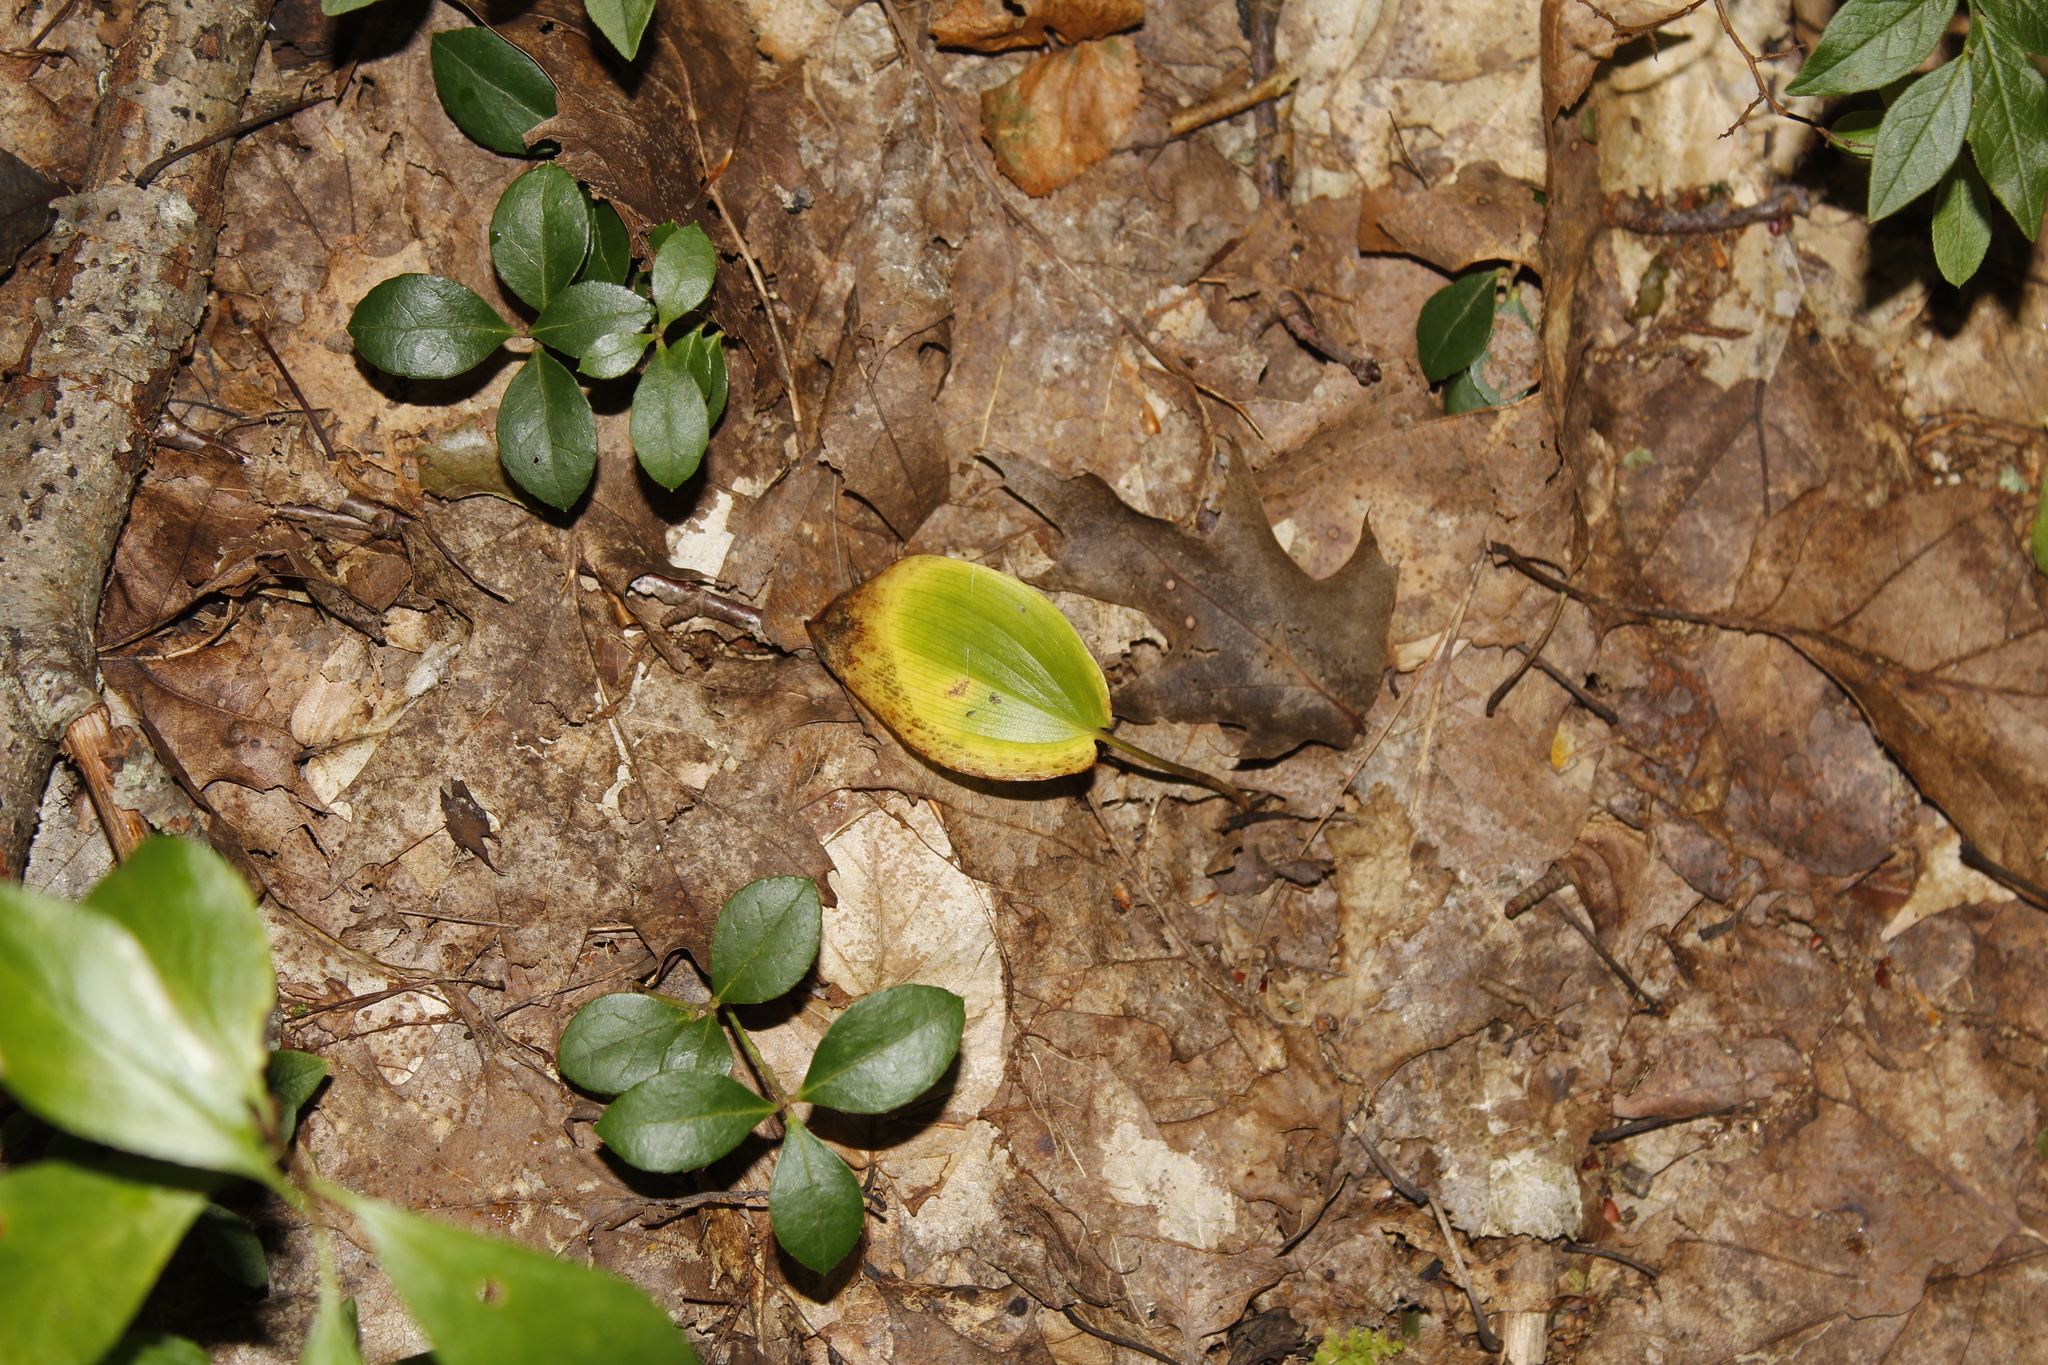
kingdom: Plantae
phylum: Tracheophyta
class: Magnoliopsida
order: Ericales
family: Ericaceae
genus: Gaultheria
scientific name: Gaultheria procumbens
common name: Checkerberry
